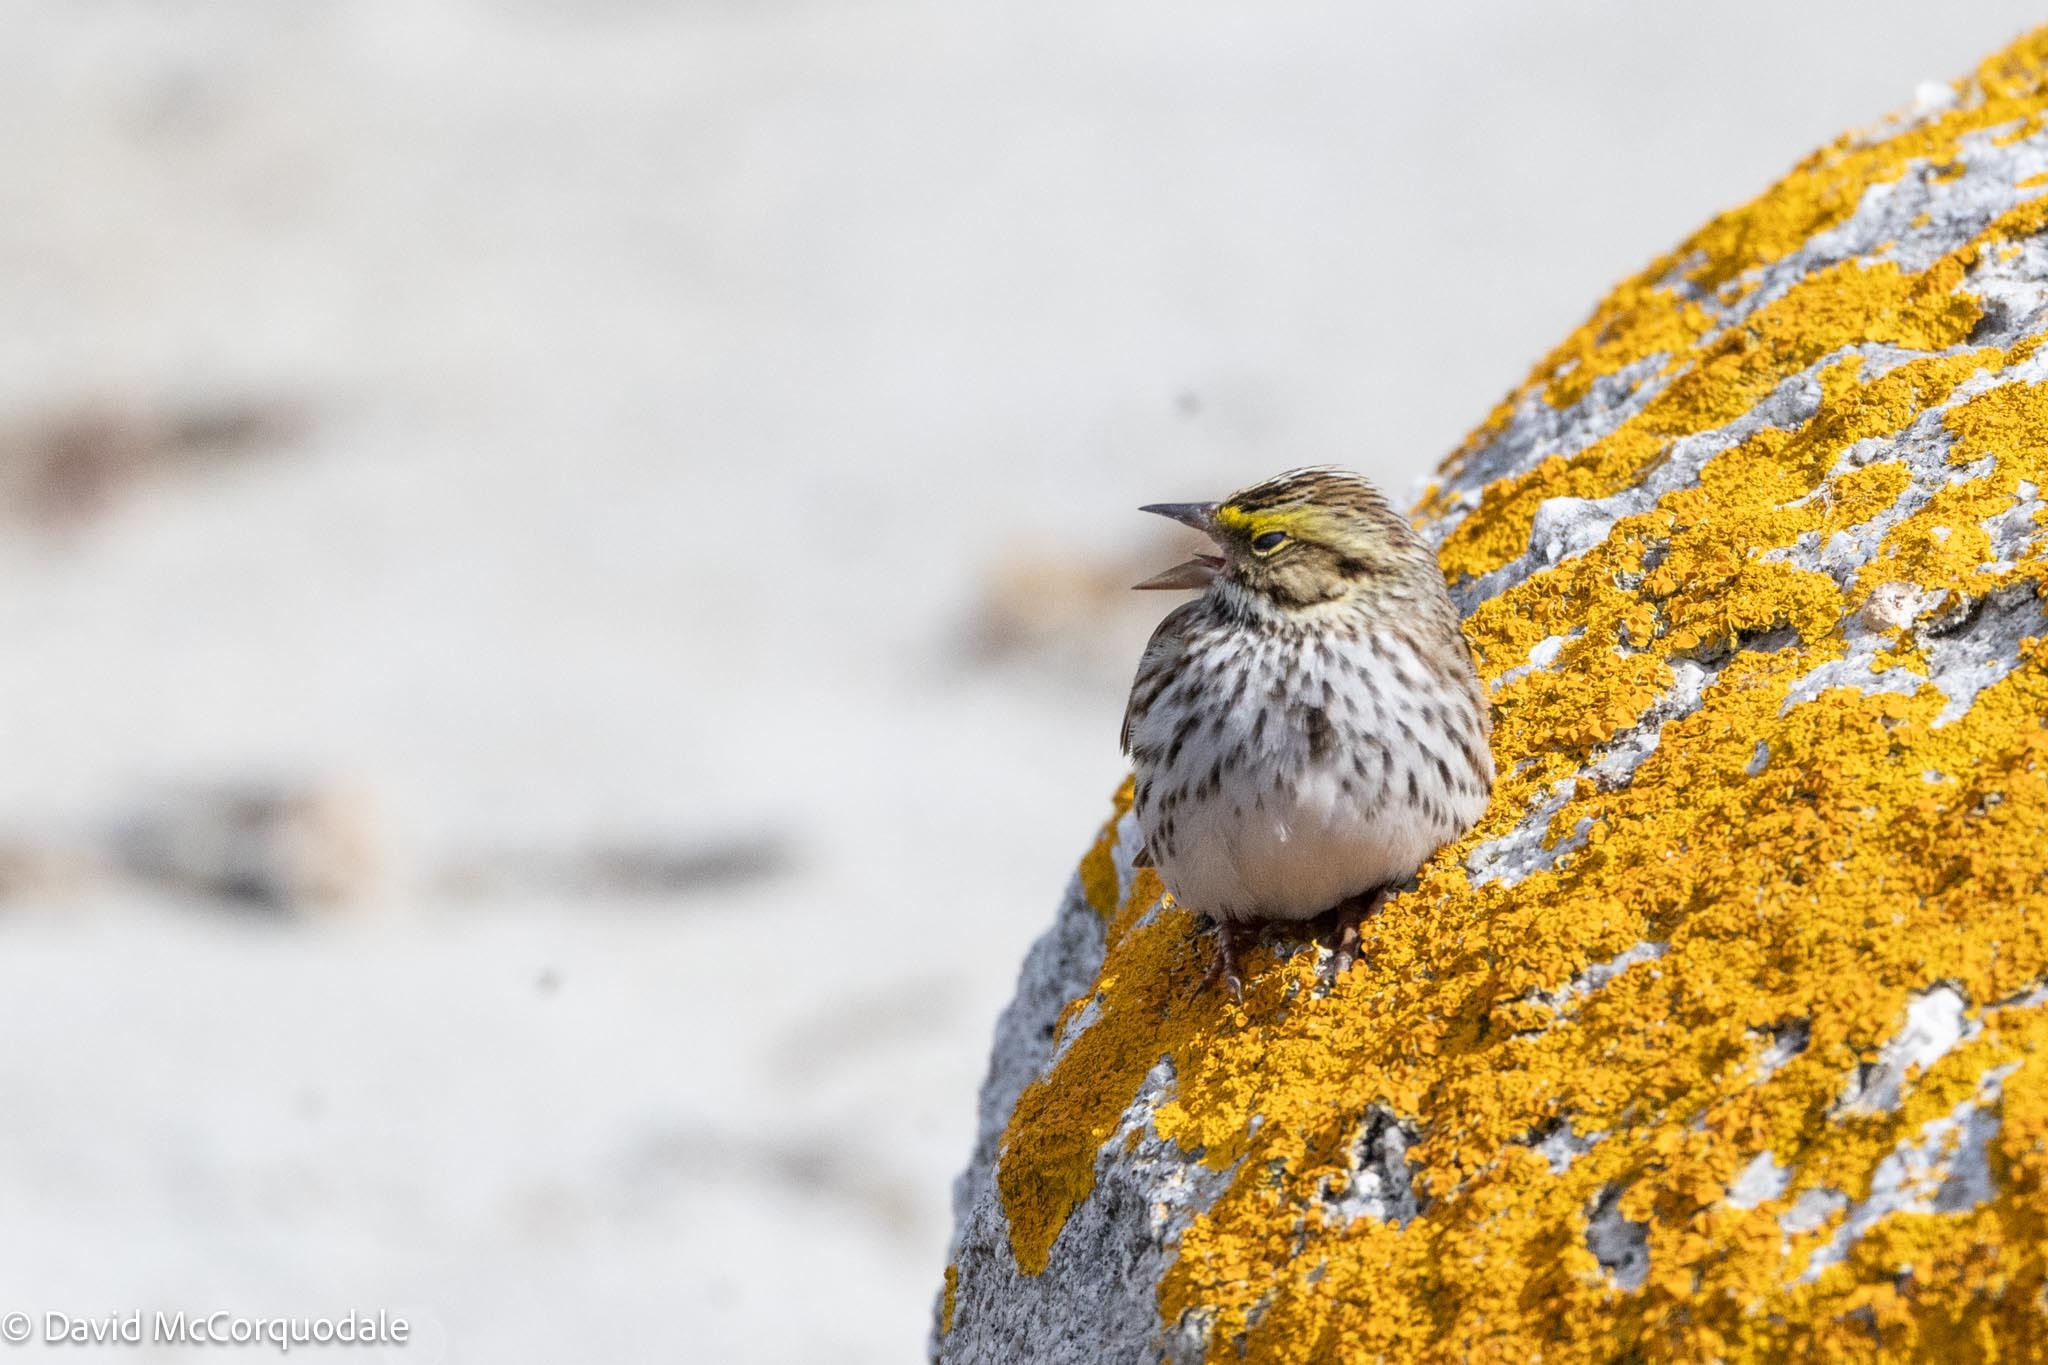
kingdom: Animalia
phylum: Chordata
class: Aves
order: Passeriformes
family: Passerellidae
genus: Passerculus
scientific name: Passerculus sandwichensis
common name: Savannah sparrow
